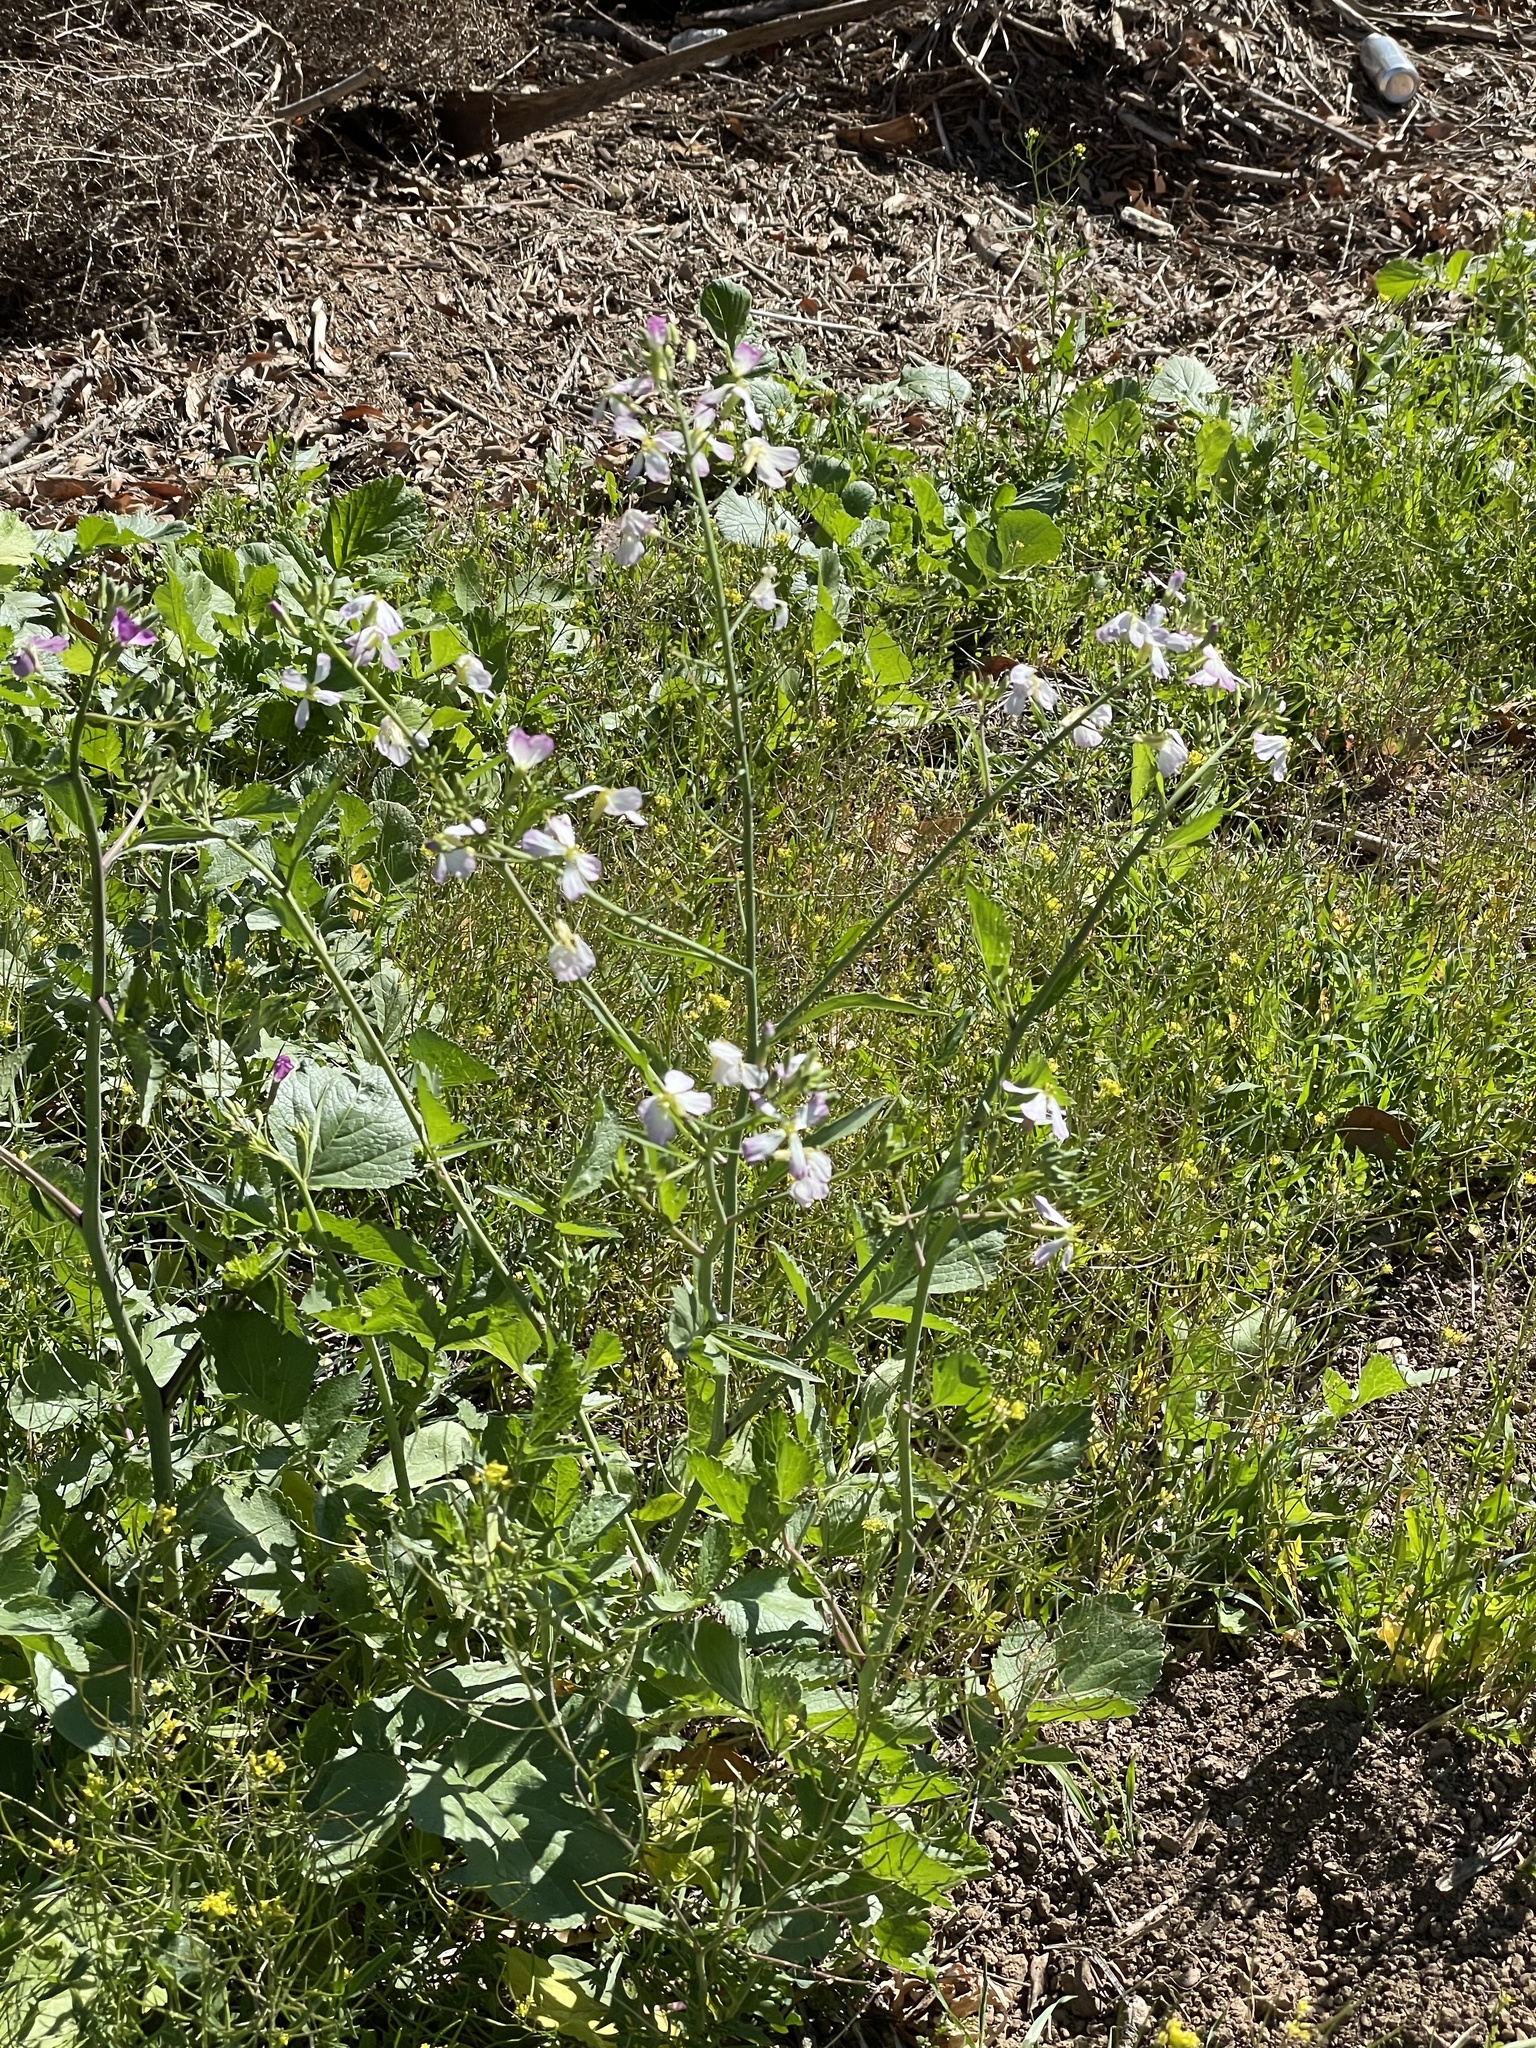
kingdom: Plantae
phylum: Tracheophyta
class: Magnoliopsida
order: Brassicales
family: Brassicaceae
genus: Raphanus
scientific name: Raphanus sativus
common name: Cultivated radish
